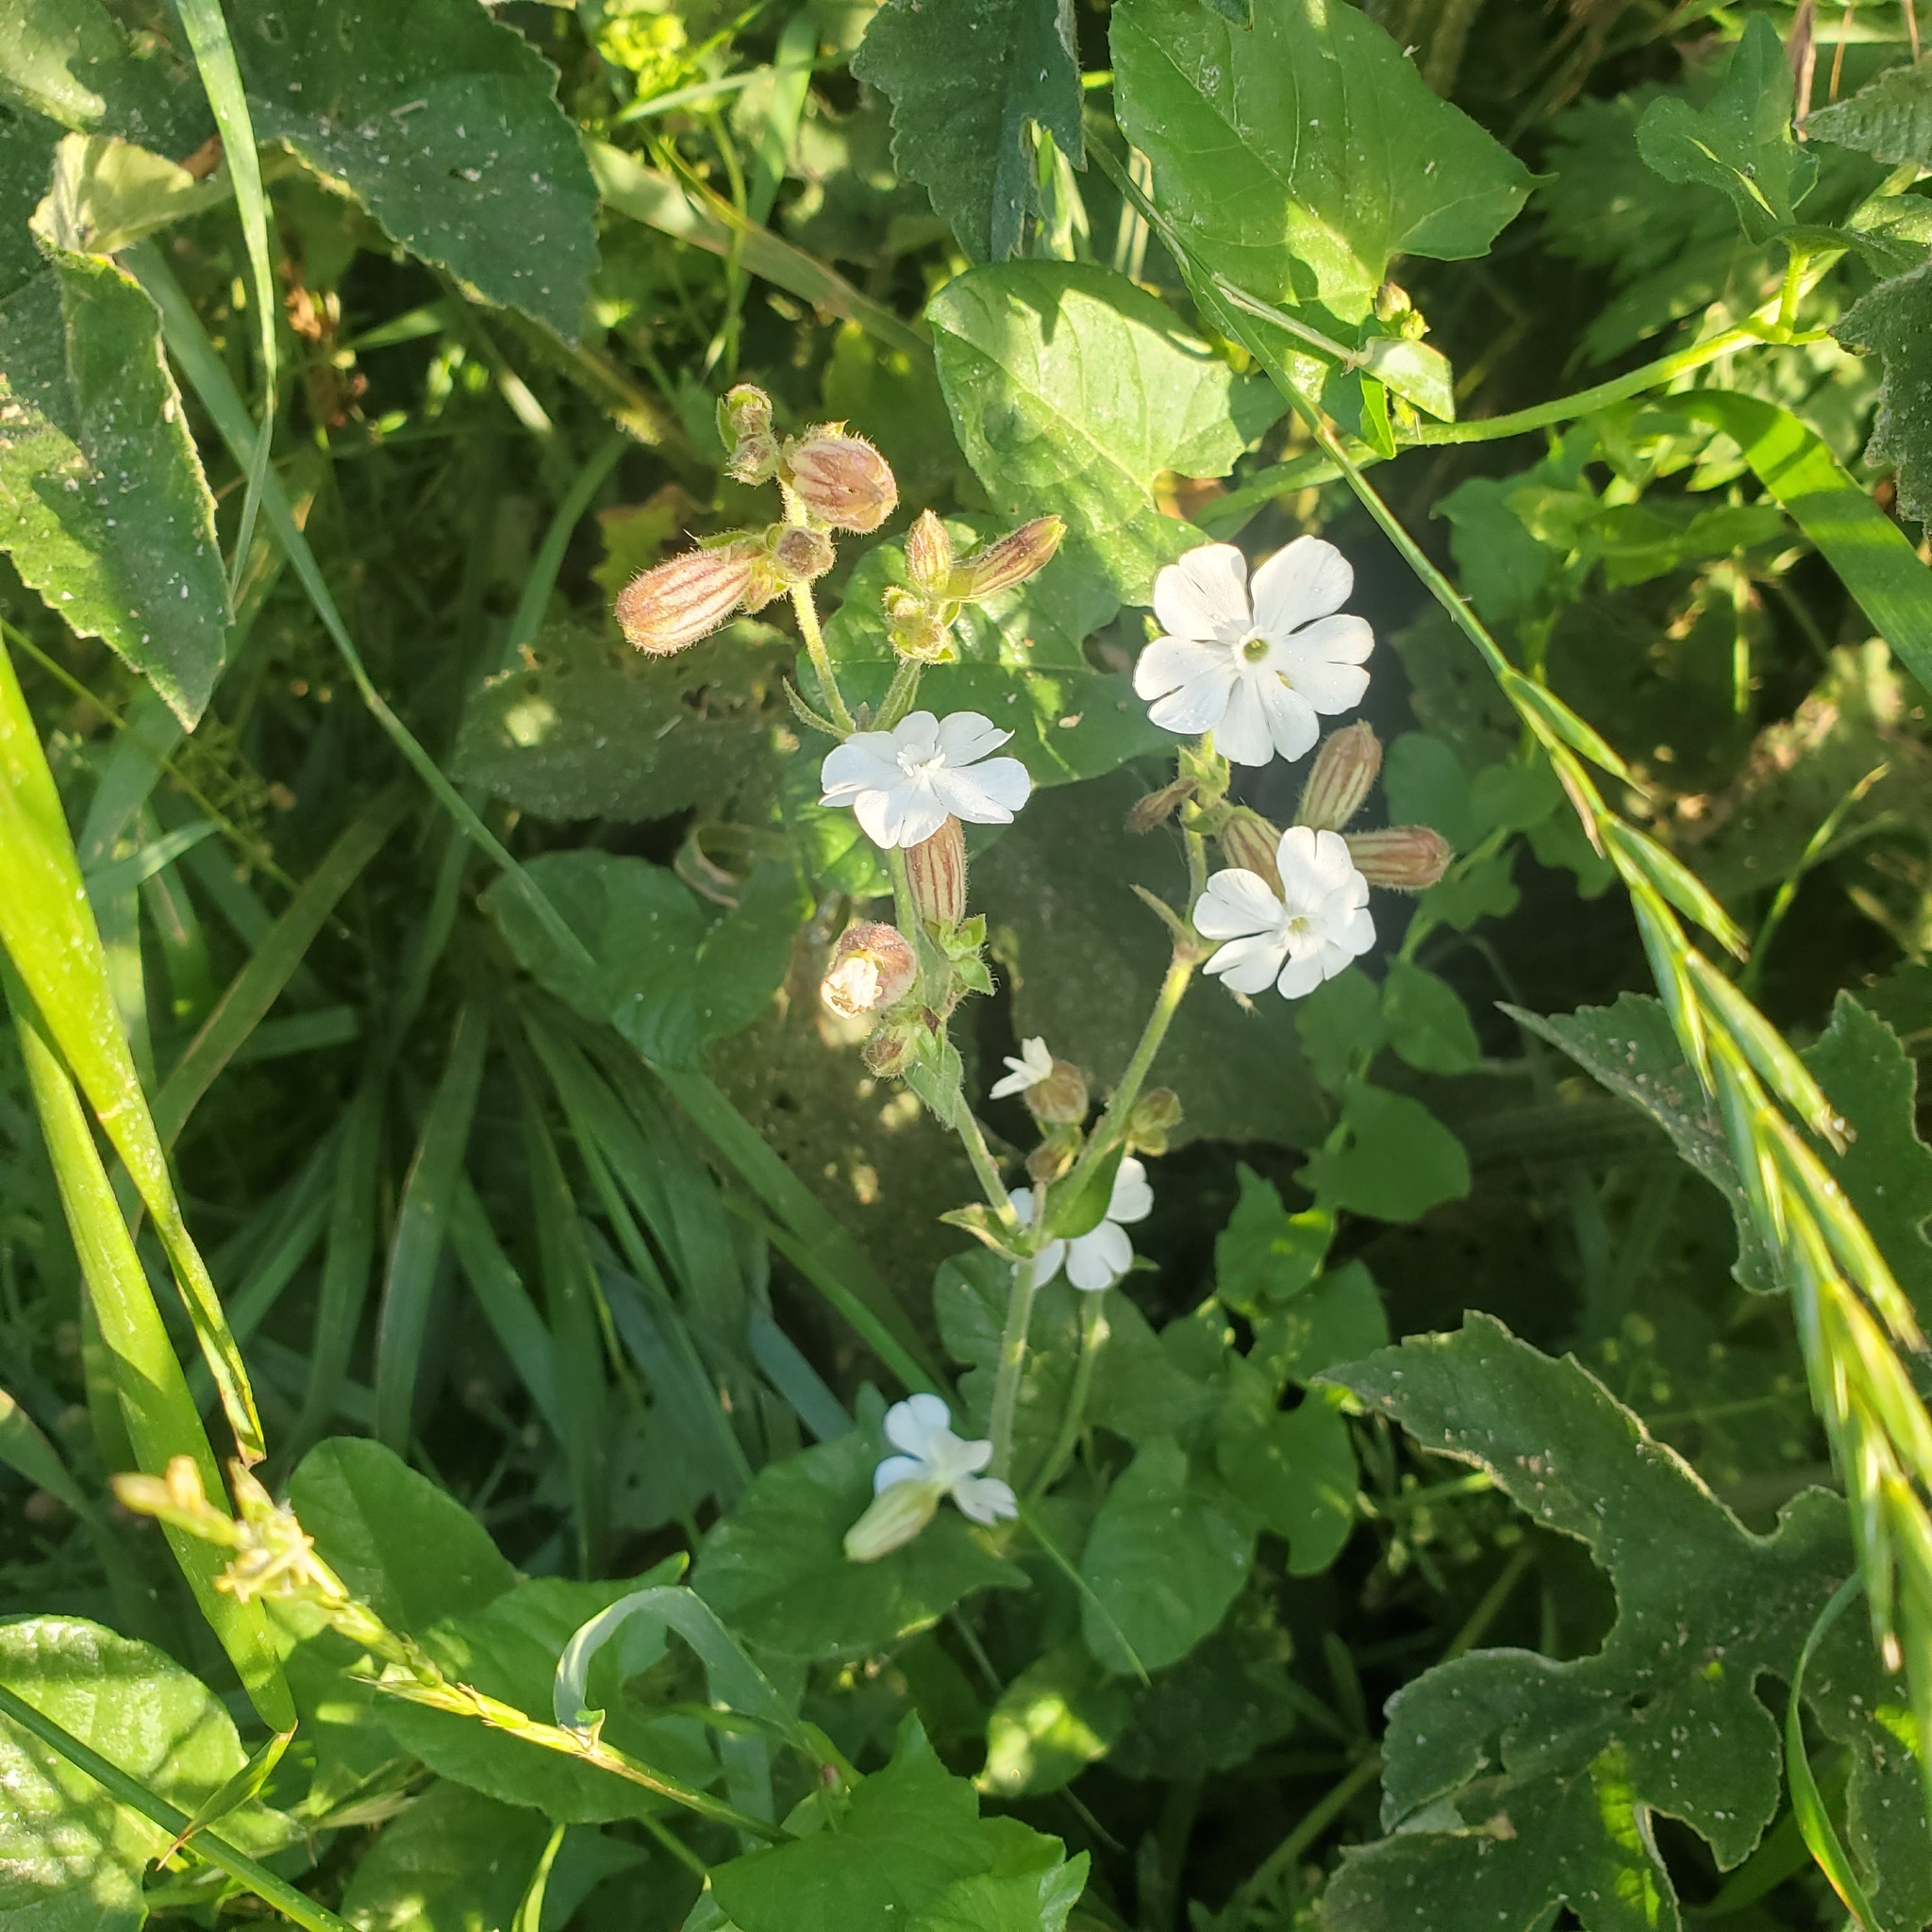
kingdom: Plantae
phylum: Tracheophyta
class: Magnoliopsida
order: Caryophyllales
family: Caryophyllaceae
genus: Silene
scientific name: Silene latifolia
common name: White campion
